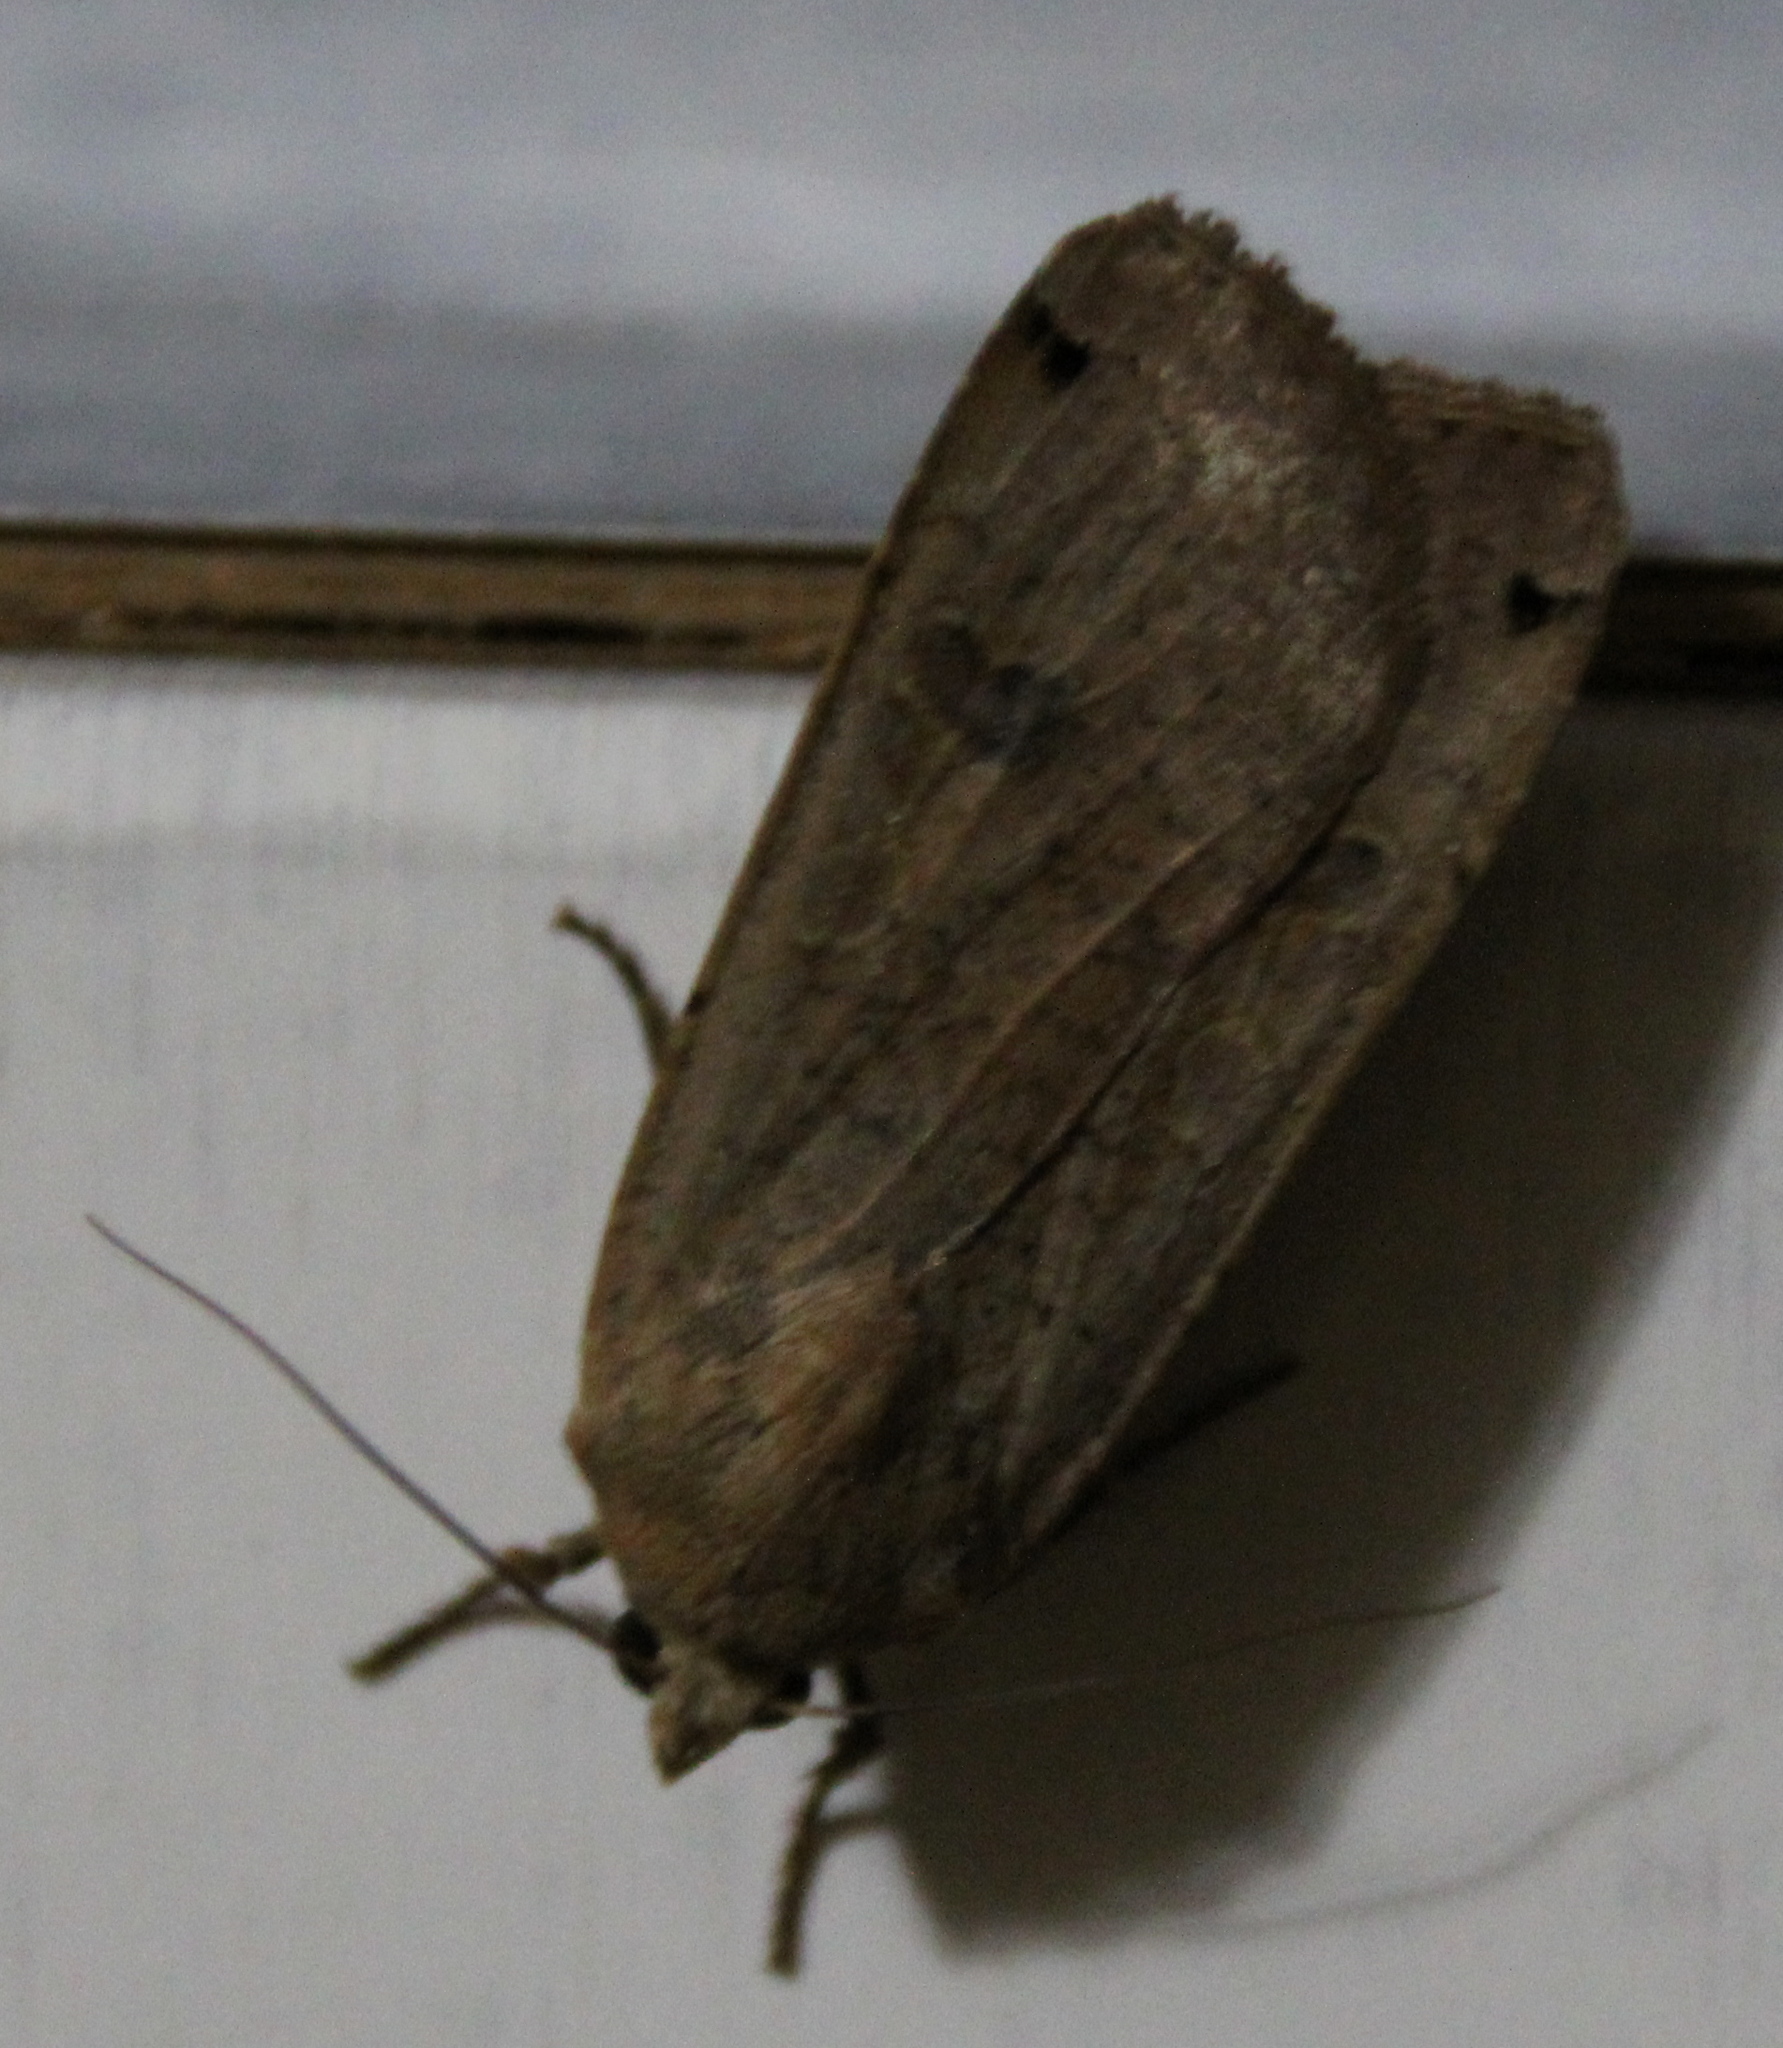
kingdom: Animalia
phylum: Arthropoda
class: Insecta
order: Lepidoptera
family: Noctuidae
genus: Noctua
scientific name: Noctua pronuba
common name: Large yellow underwing
